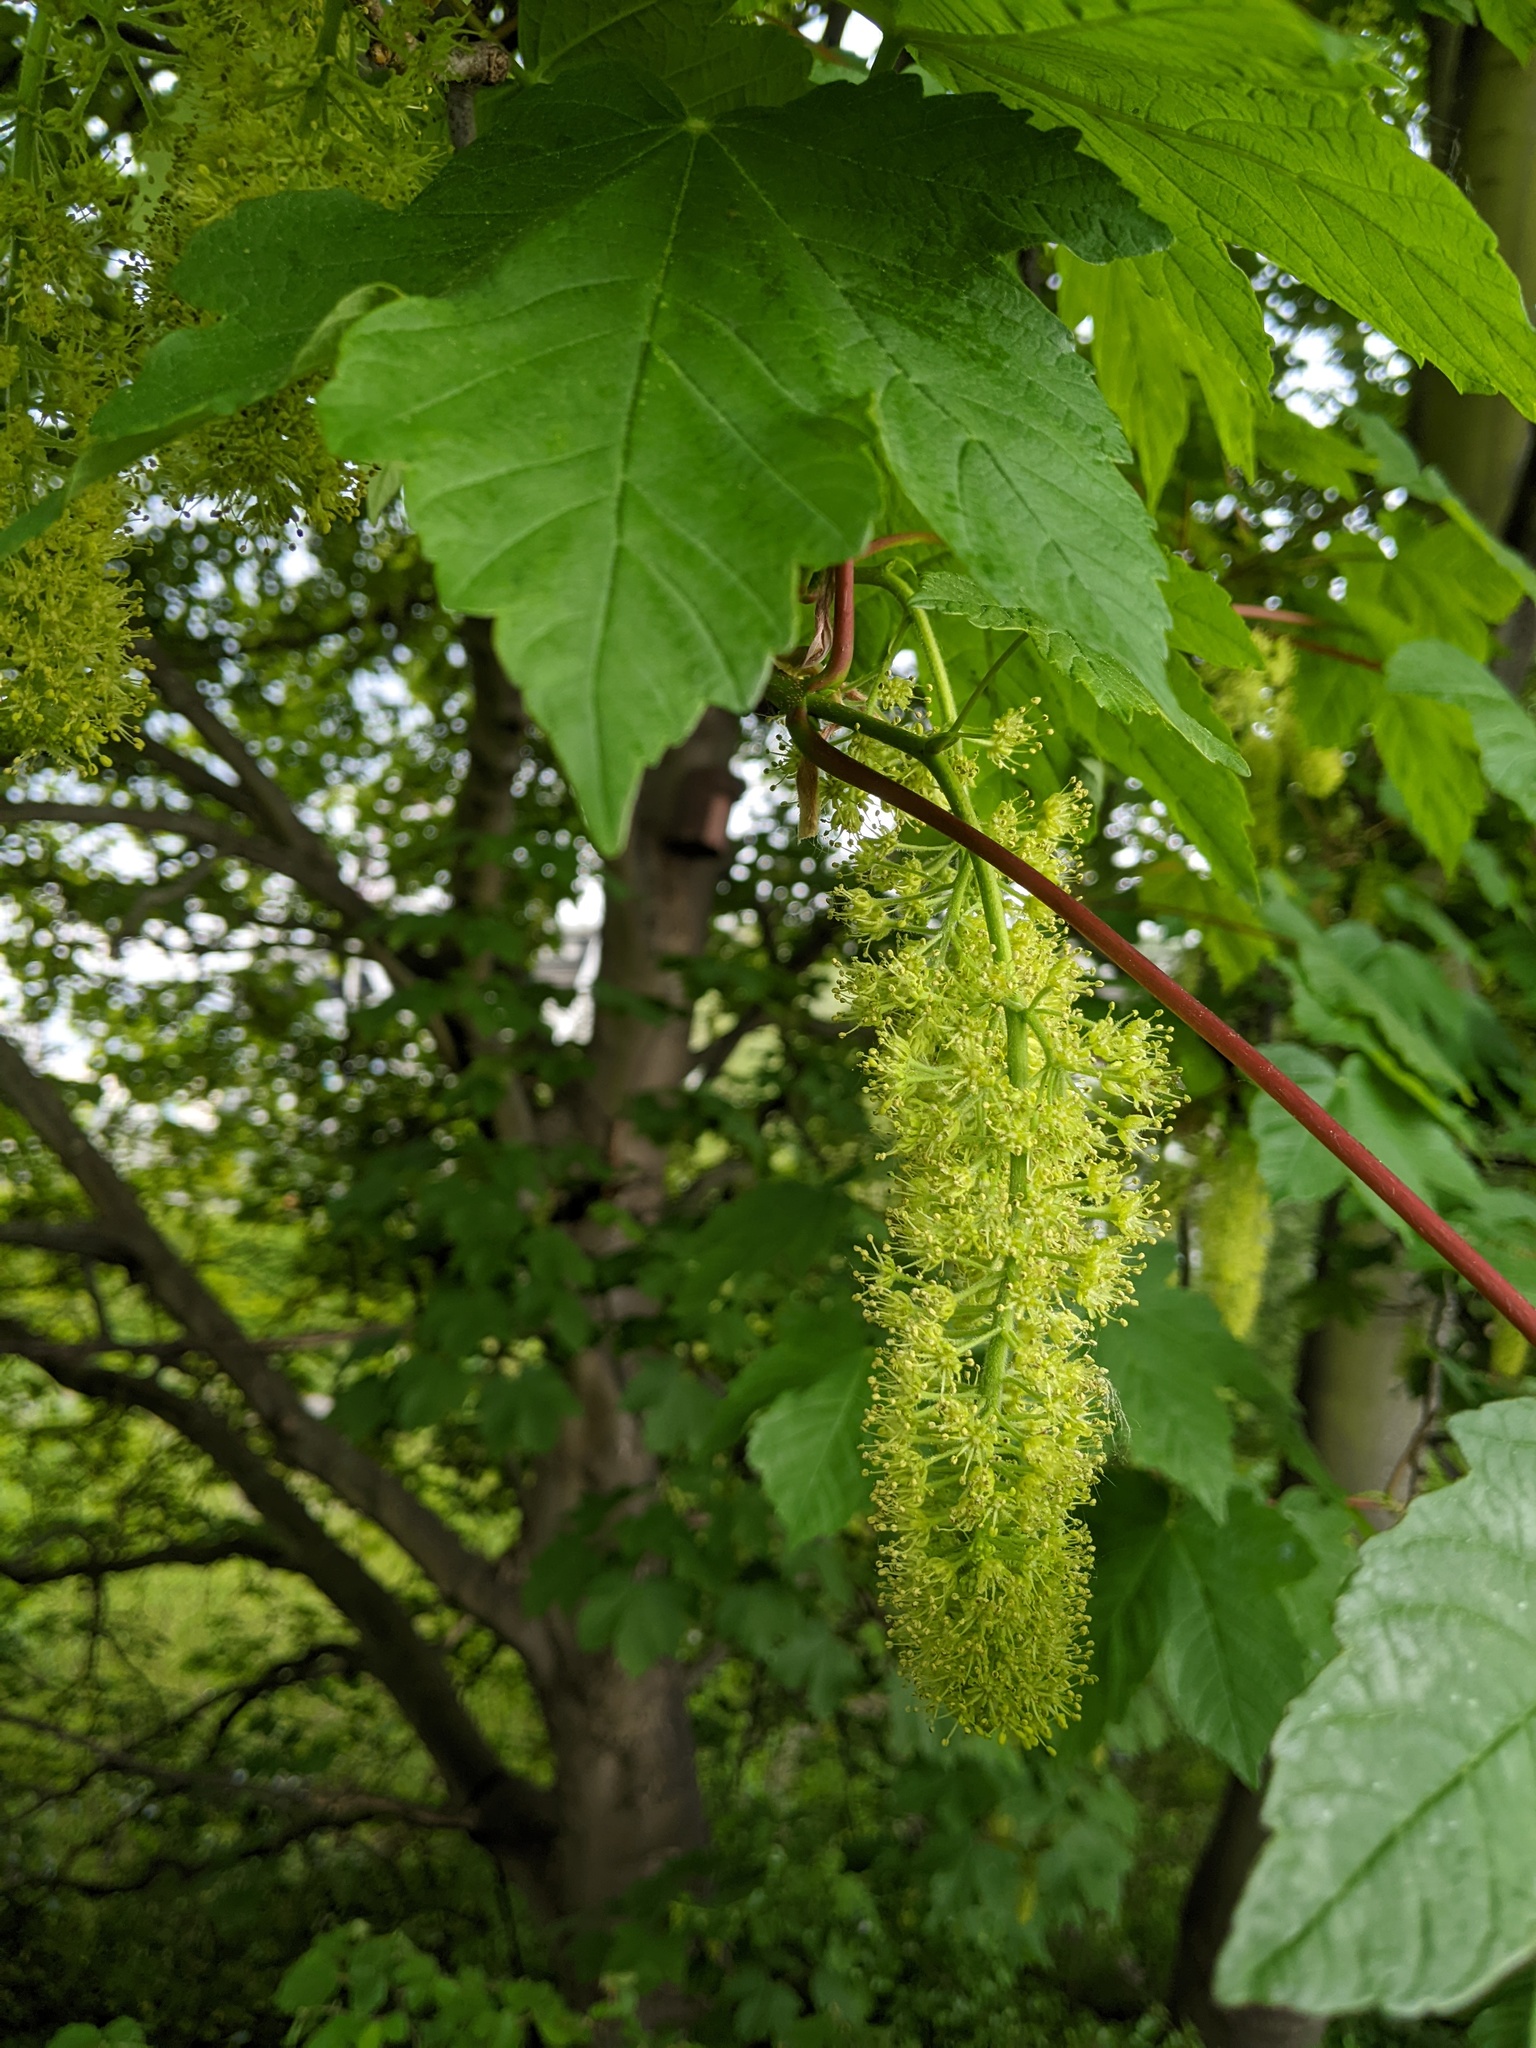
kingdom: Plantae
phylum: Tracheophyta
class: Magnoliopsida
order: Sapindales
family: Sapindaceae
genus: Acer
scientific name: Acer pseudoplatanus
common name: Sycamore
